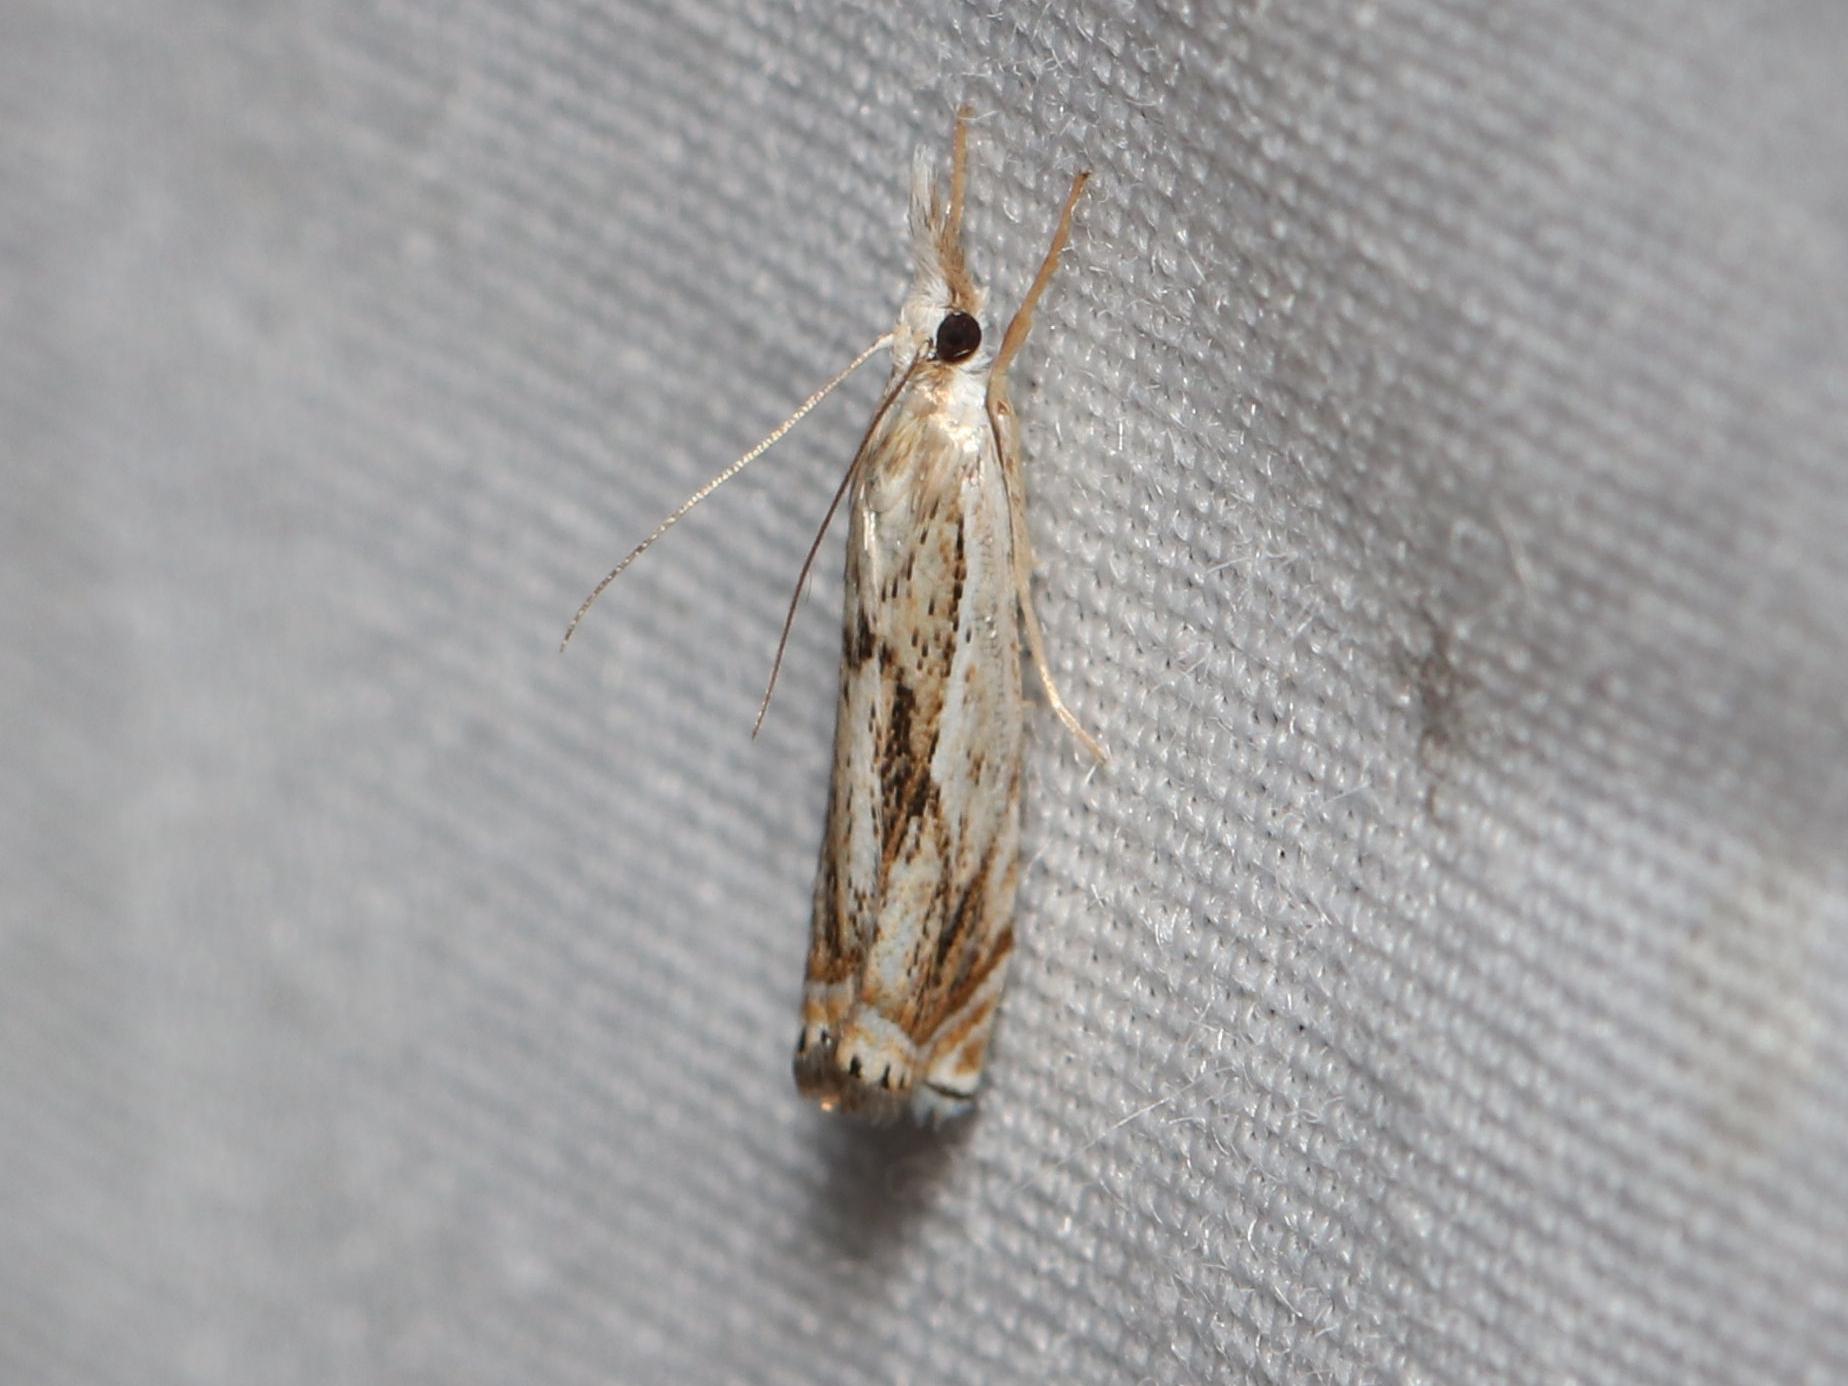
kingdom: Animalia
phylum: Arthropoda
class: Insecta
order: Lepidoptera
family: Crambidae
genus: Crambus
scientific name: Crambus albellus
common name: Small white grass-veneer
